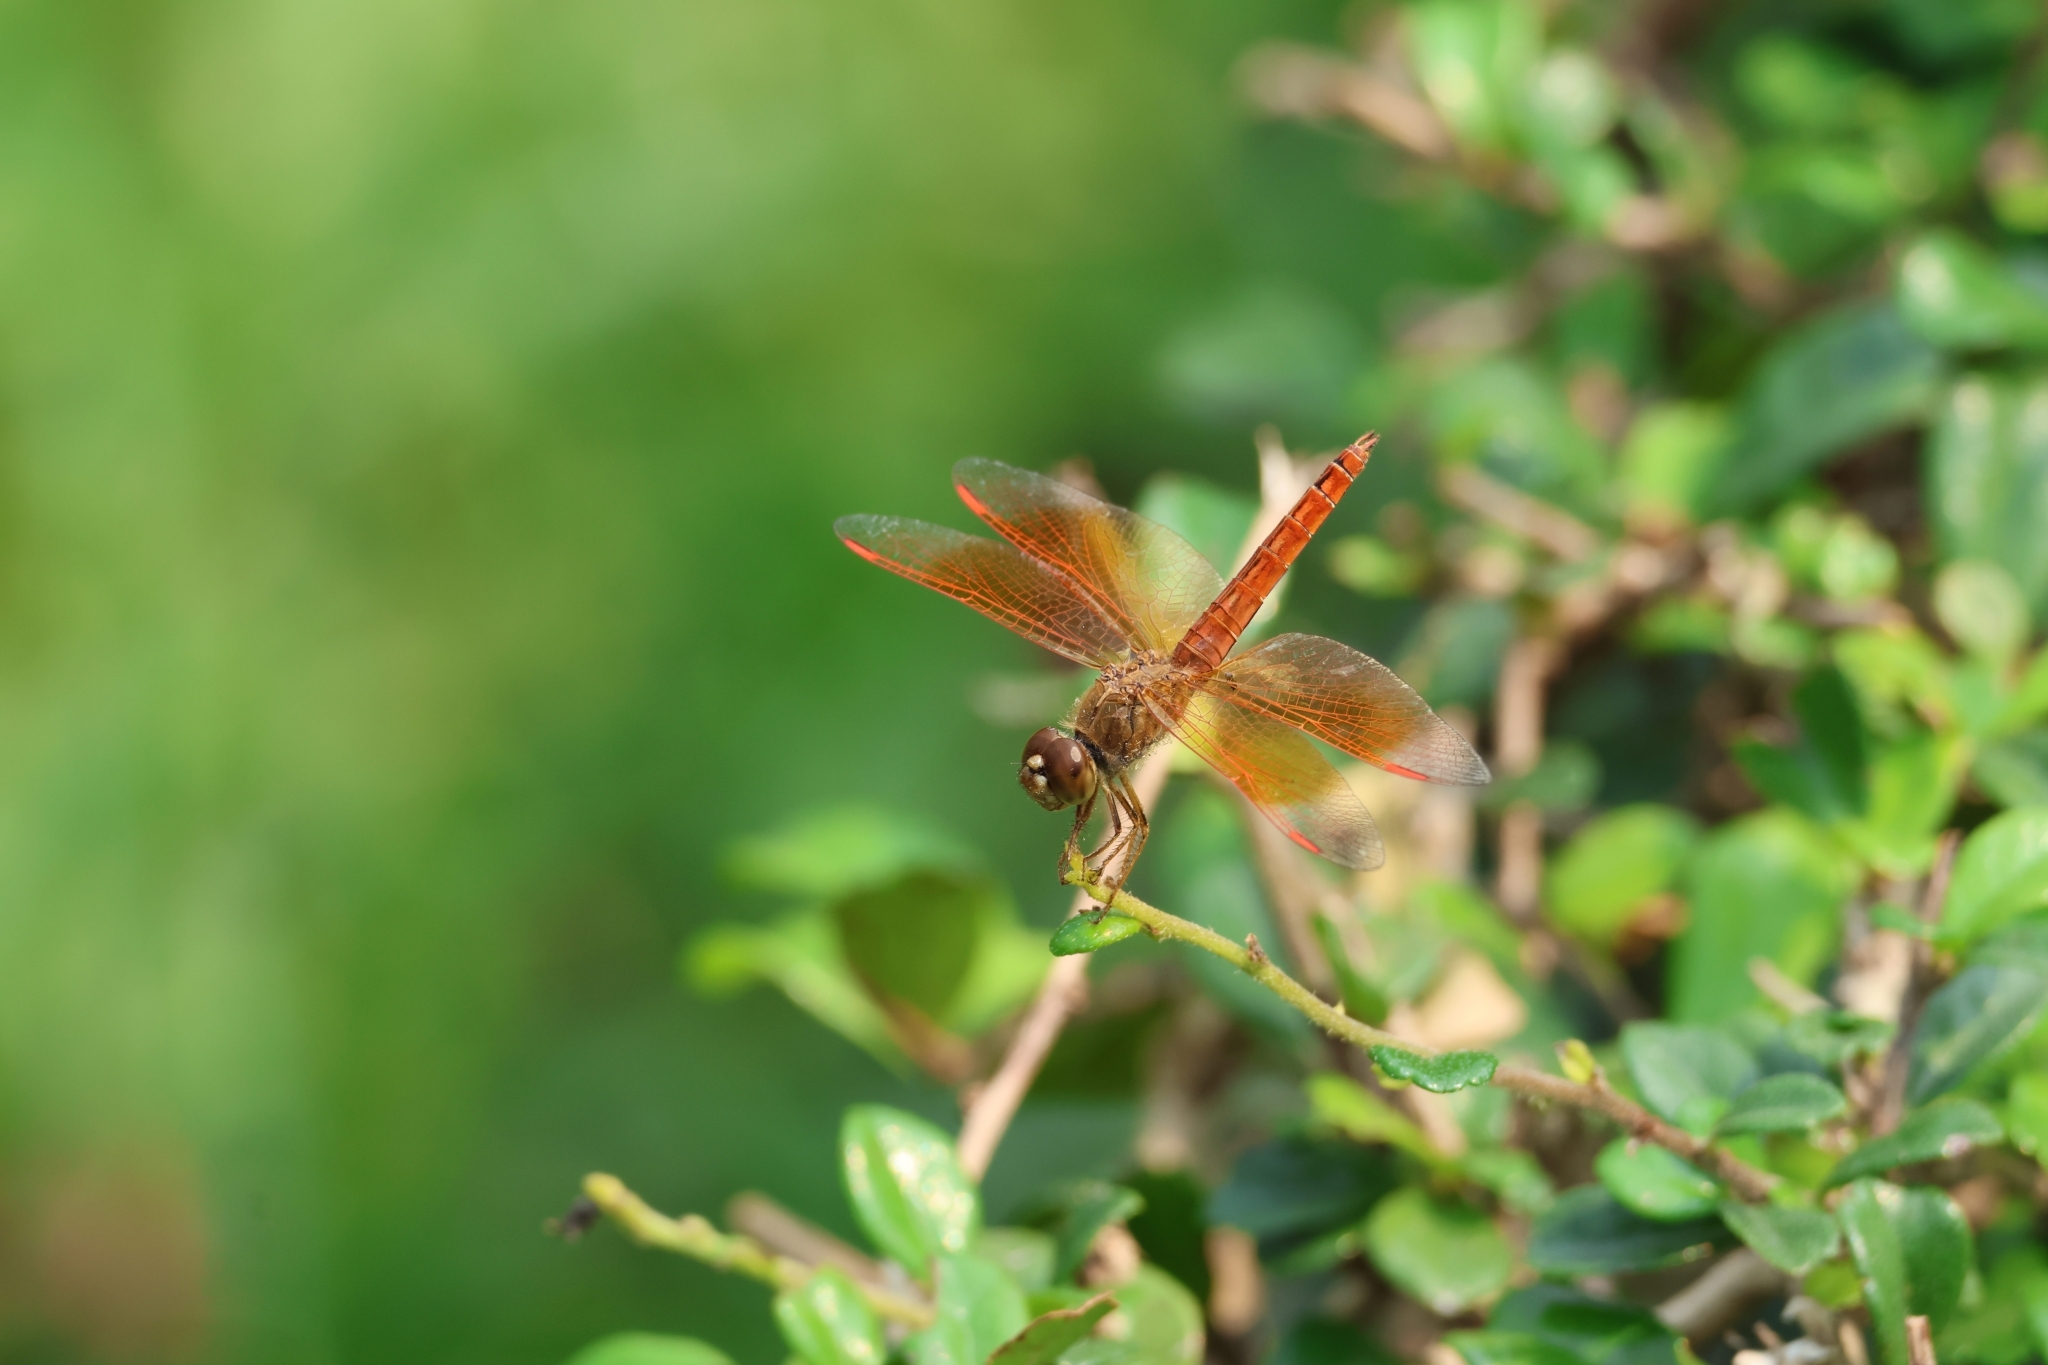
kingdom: Animalia
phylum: Arthropoda
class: Insecta
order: Odonata
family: Libellulidae
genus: Brachythemis
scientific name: Brachythemis contaminata
